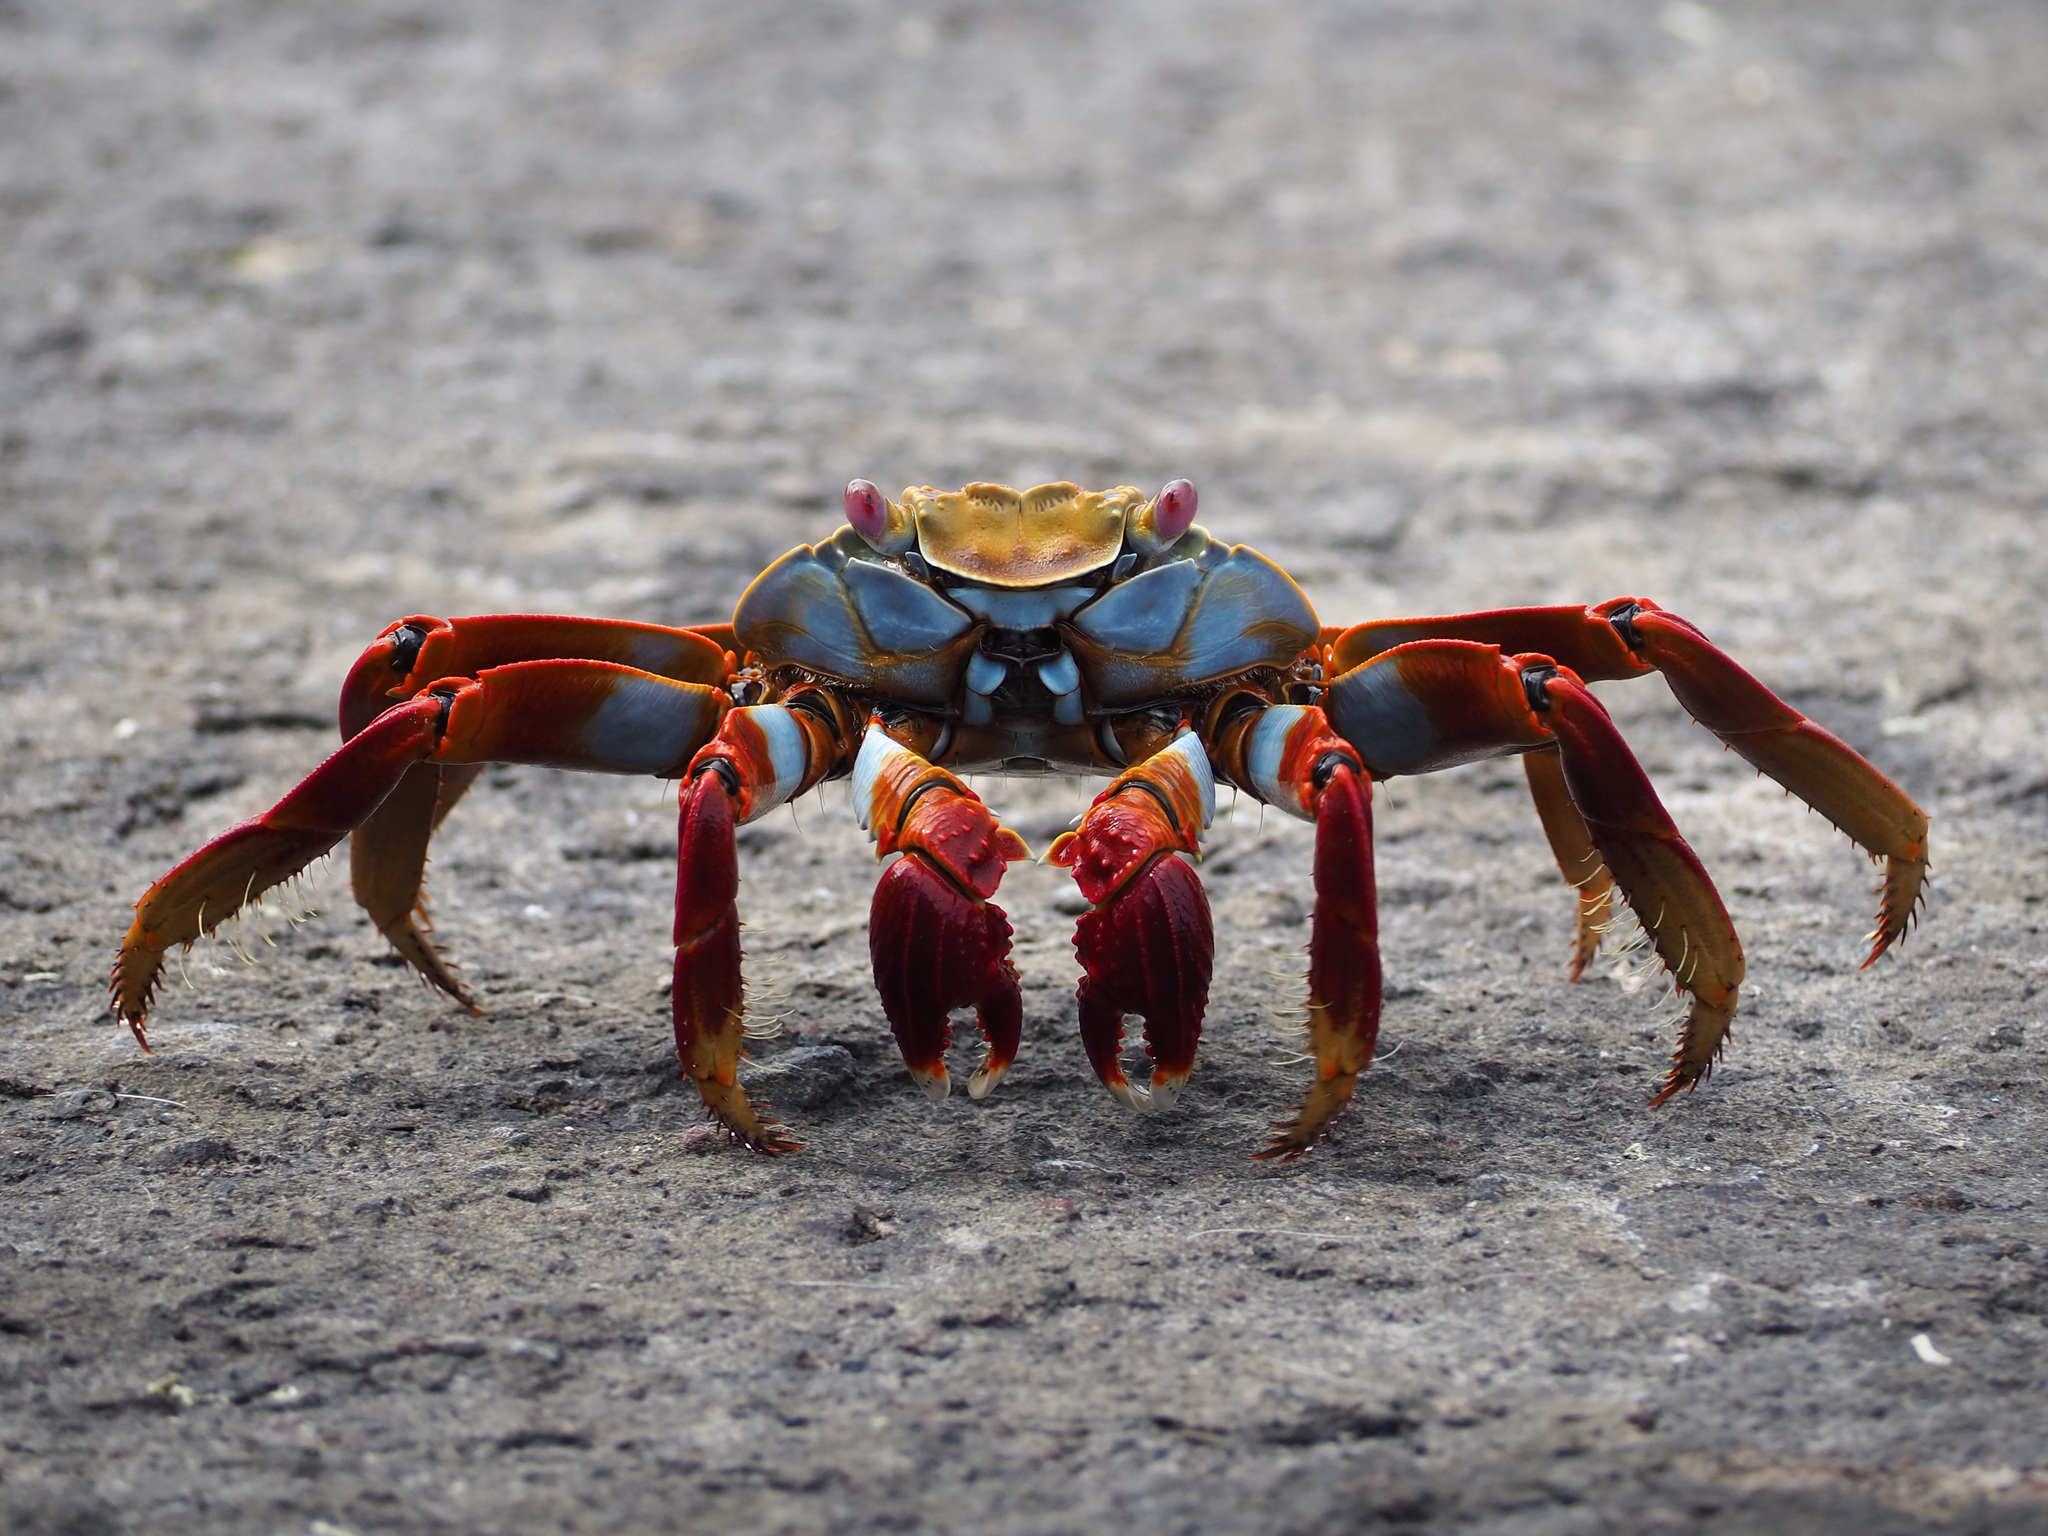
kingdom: Animalia
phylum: Arthropoda
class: Malacostraca
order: Decapoda
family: Grapsidae
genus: Grapsus
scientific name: Grapsus grapsus
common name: Sally lightfoot
